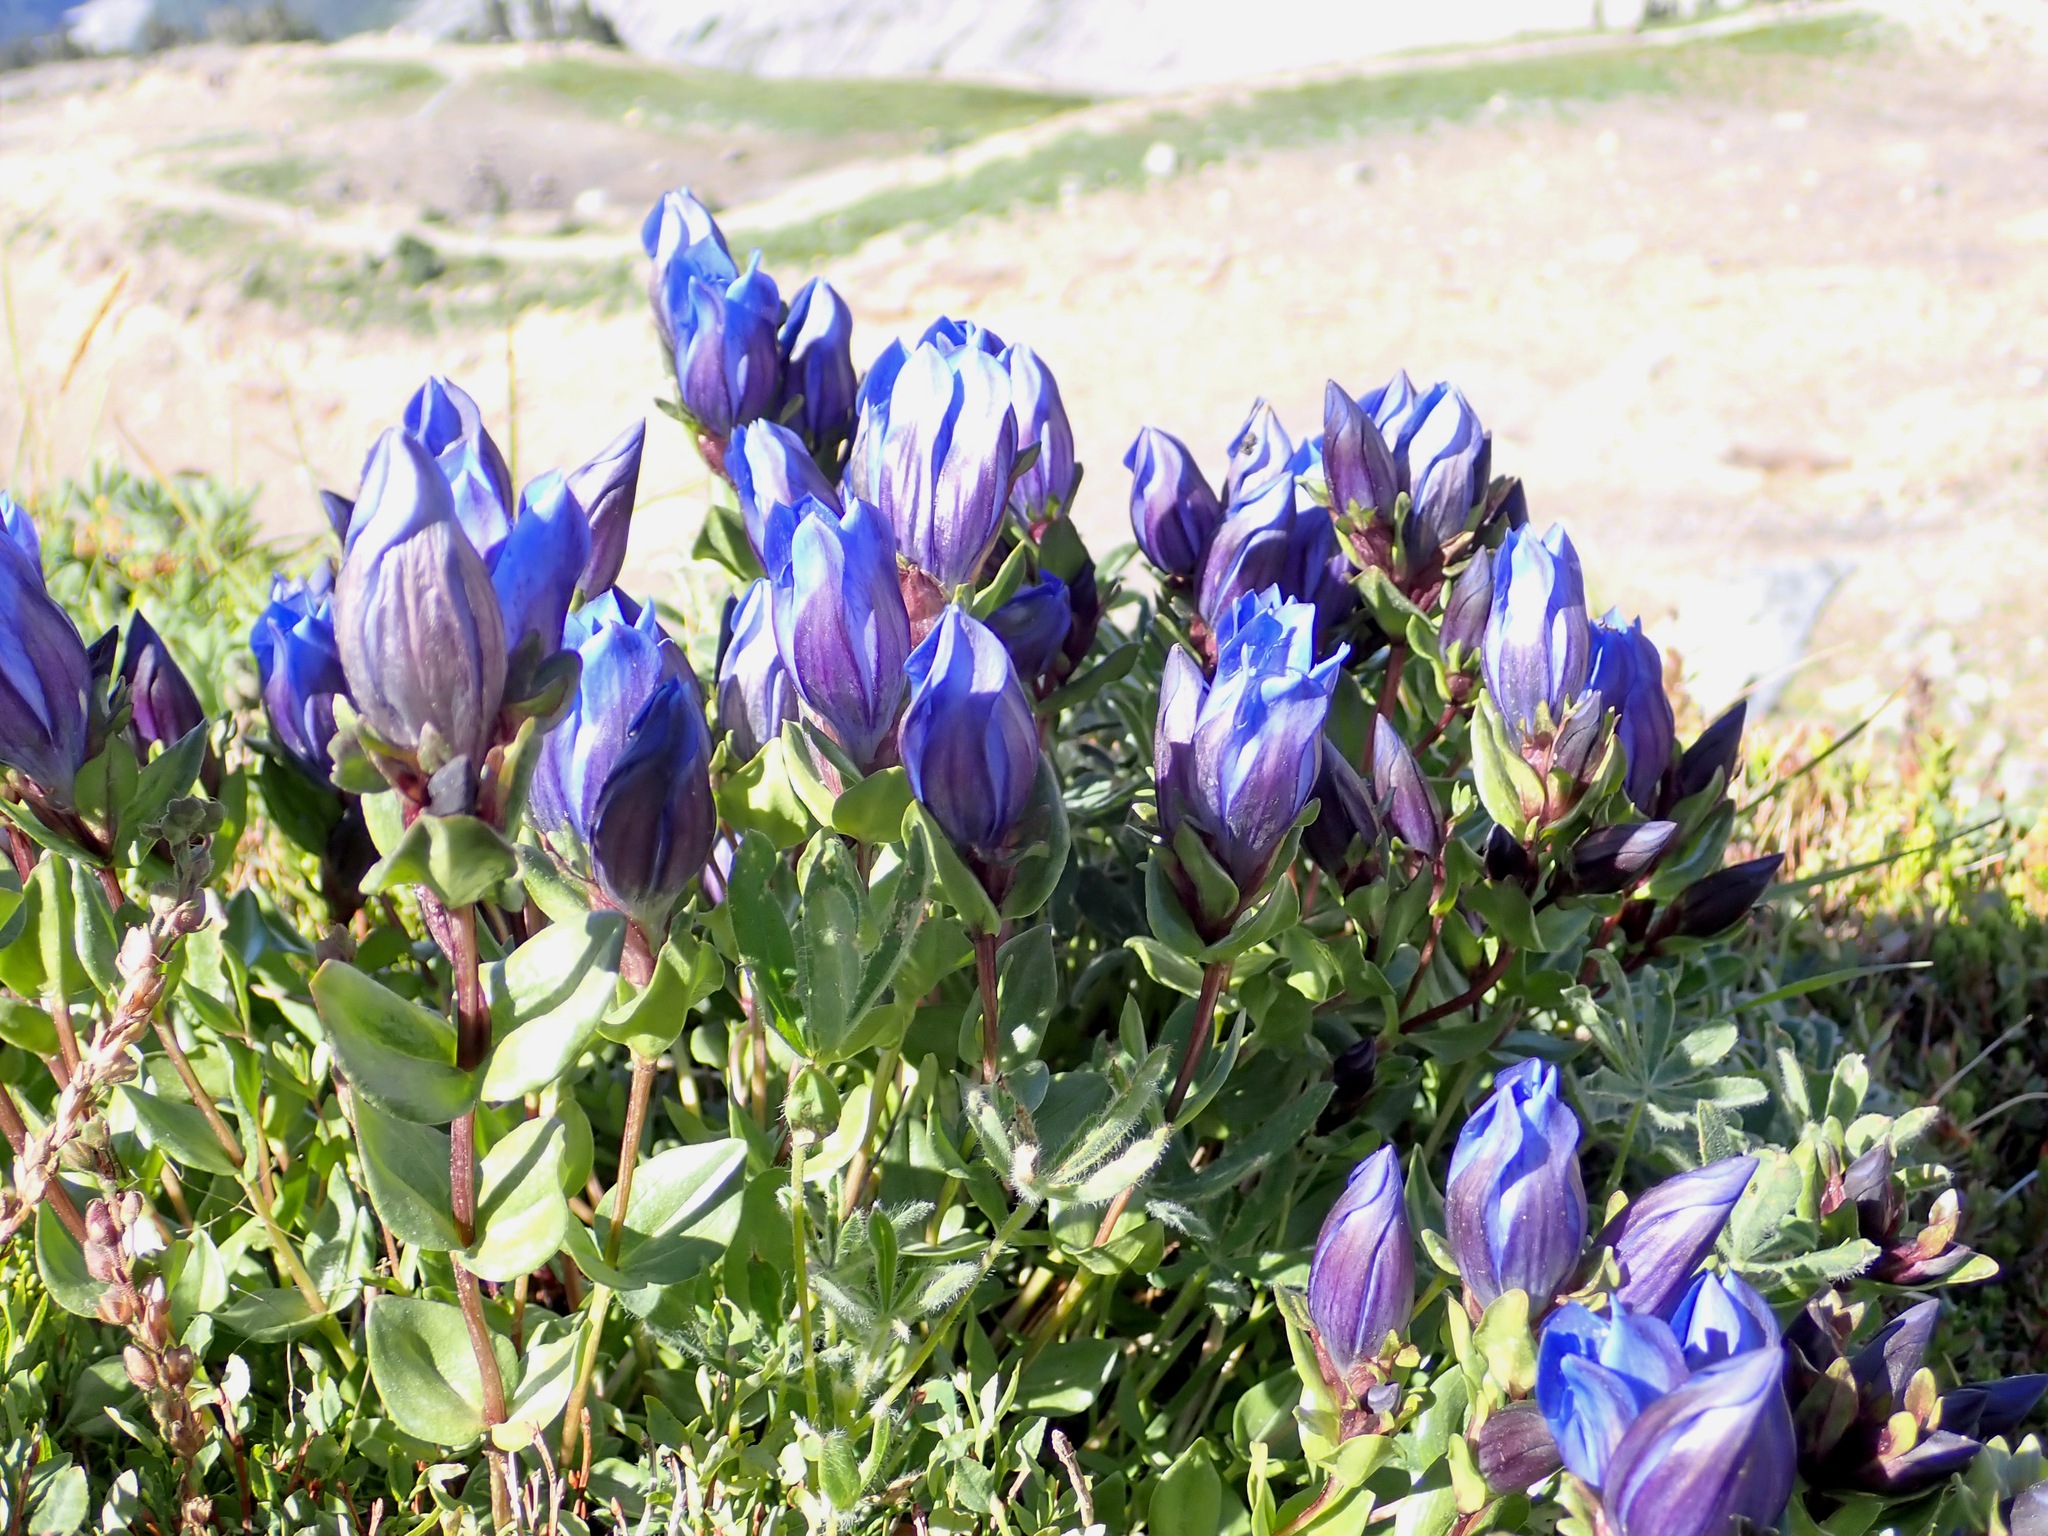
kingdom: Plantae
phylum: Tracheophyta
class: Magnoliopsida
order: Gentianales
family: Gentianaceae
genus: Gentiana
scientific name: Gentiana calycosa
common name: Rainier pleated gentian
